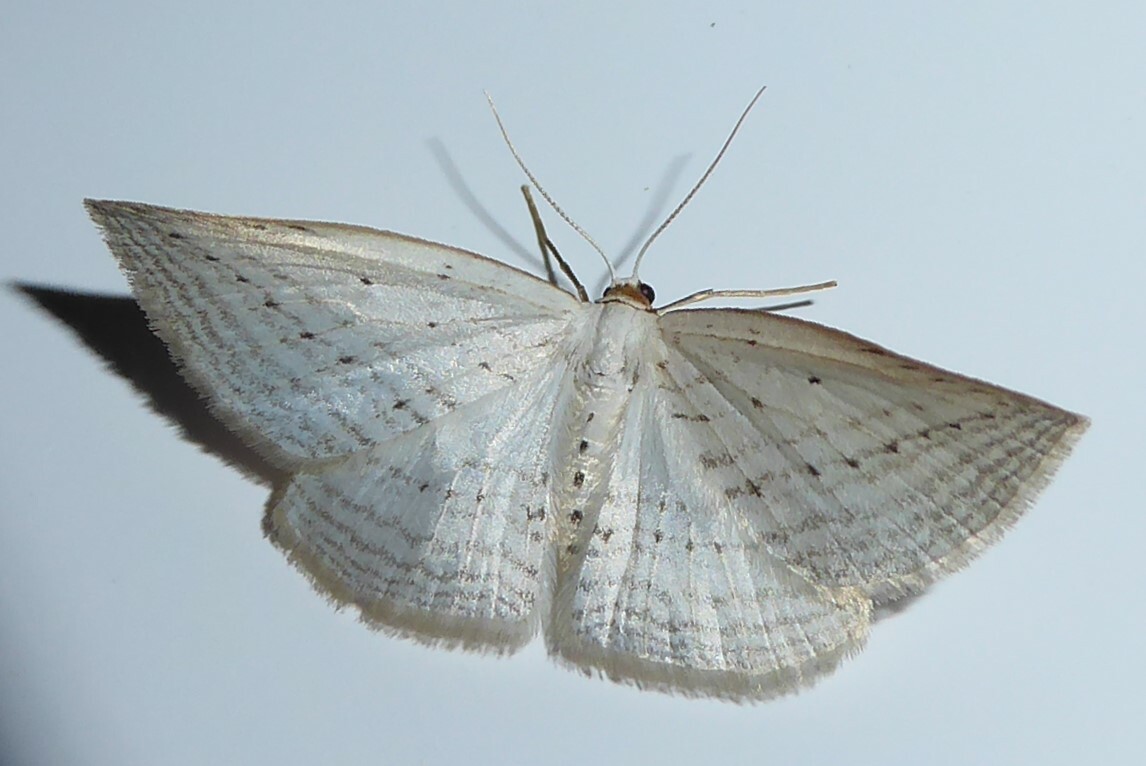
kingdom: Animalia
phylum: Arthropoda
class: Insecta
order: Lepidoptera
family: Geometridae
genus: Orthoclydon
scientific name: Orthoclydon praefectata
